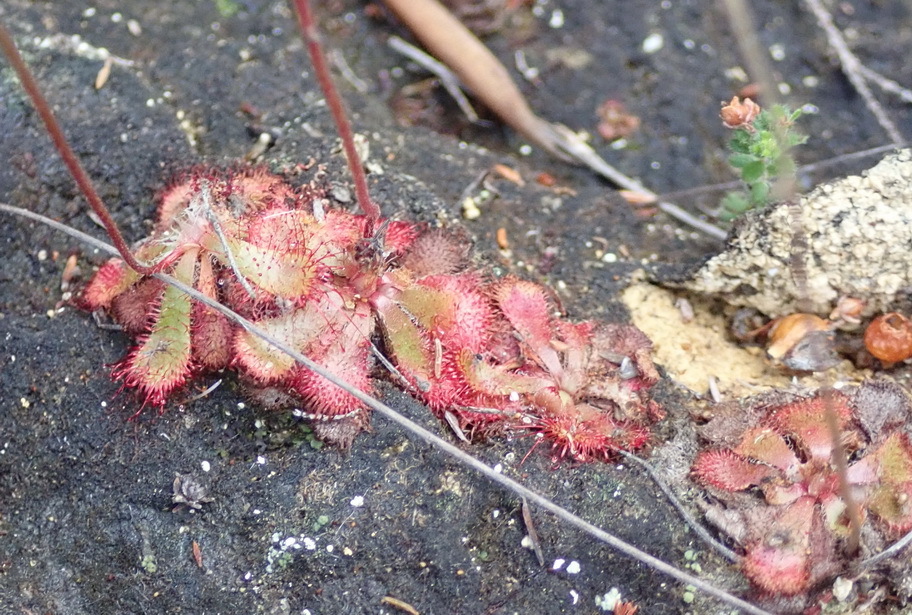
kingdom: Plantae
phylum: Tracheophyta
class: Magnoliopsida
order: Caryophyllales
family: Droseraceae
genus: Drosera
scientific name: Drosera aliciae
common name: Alice sundew
